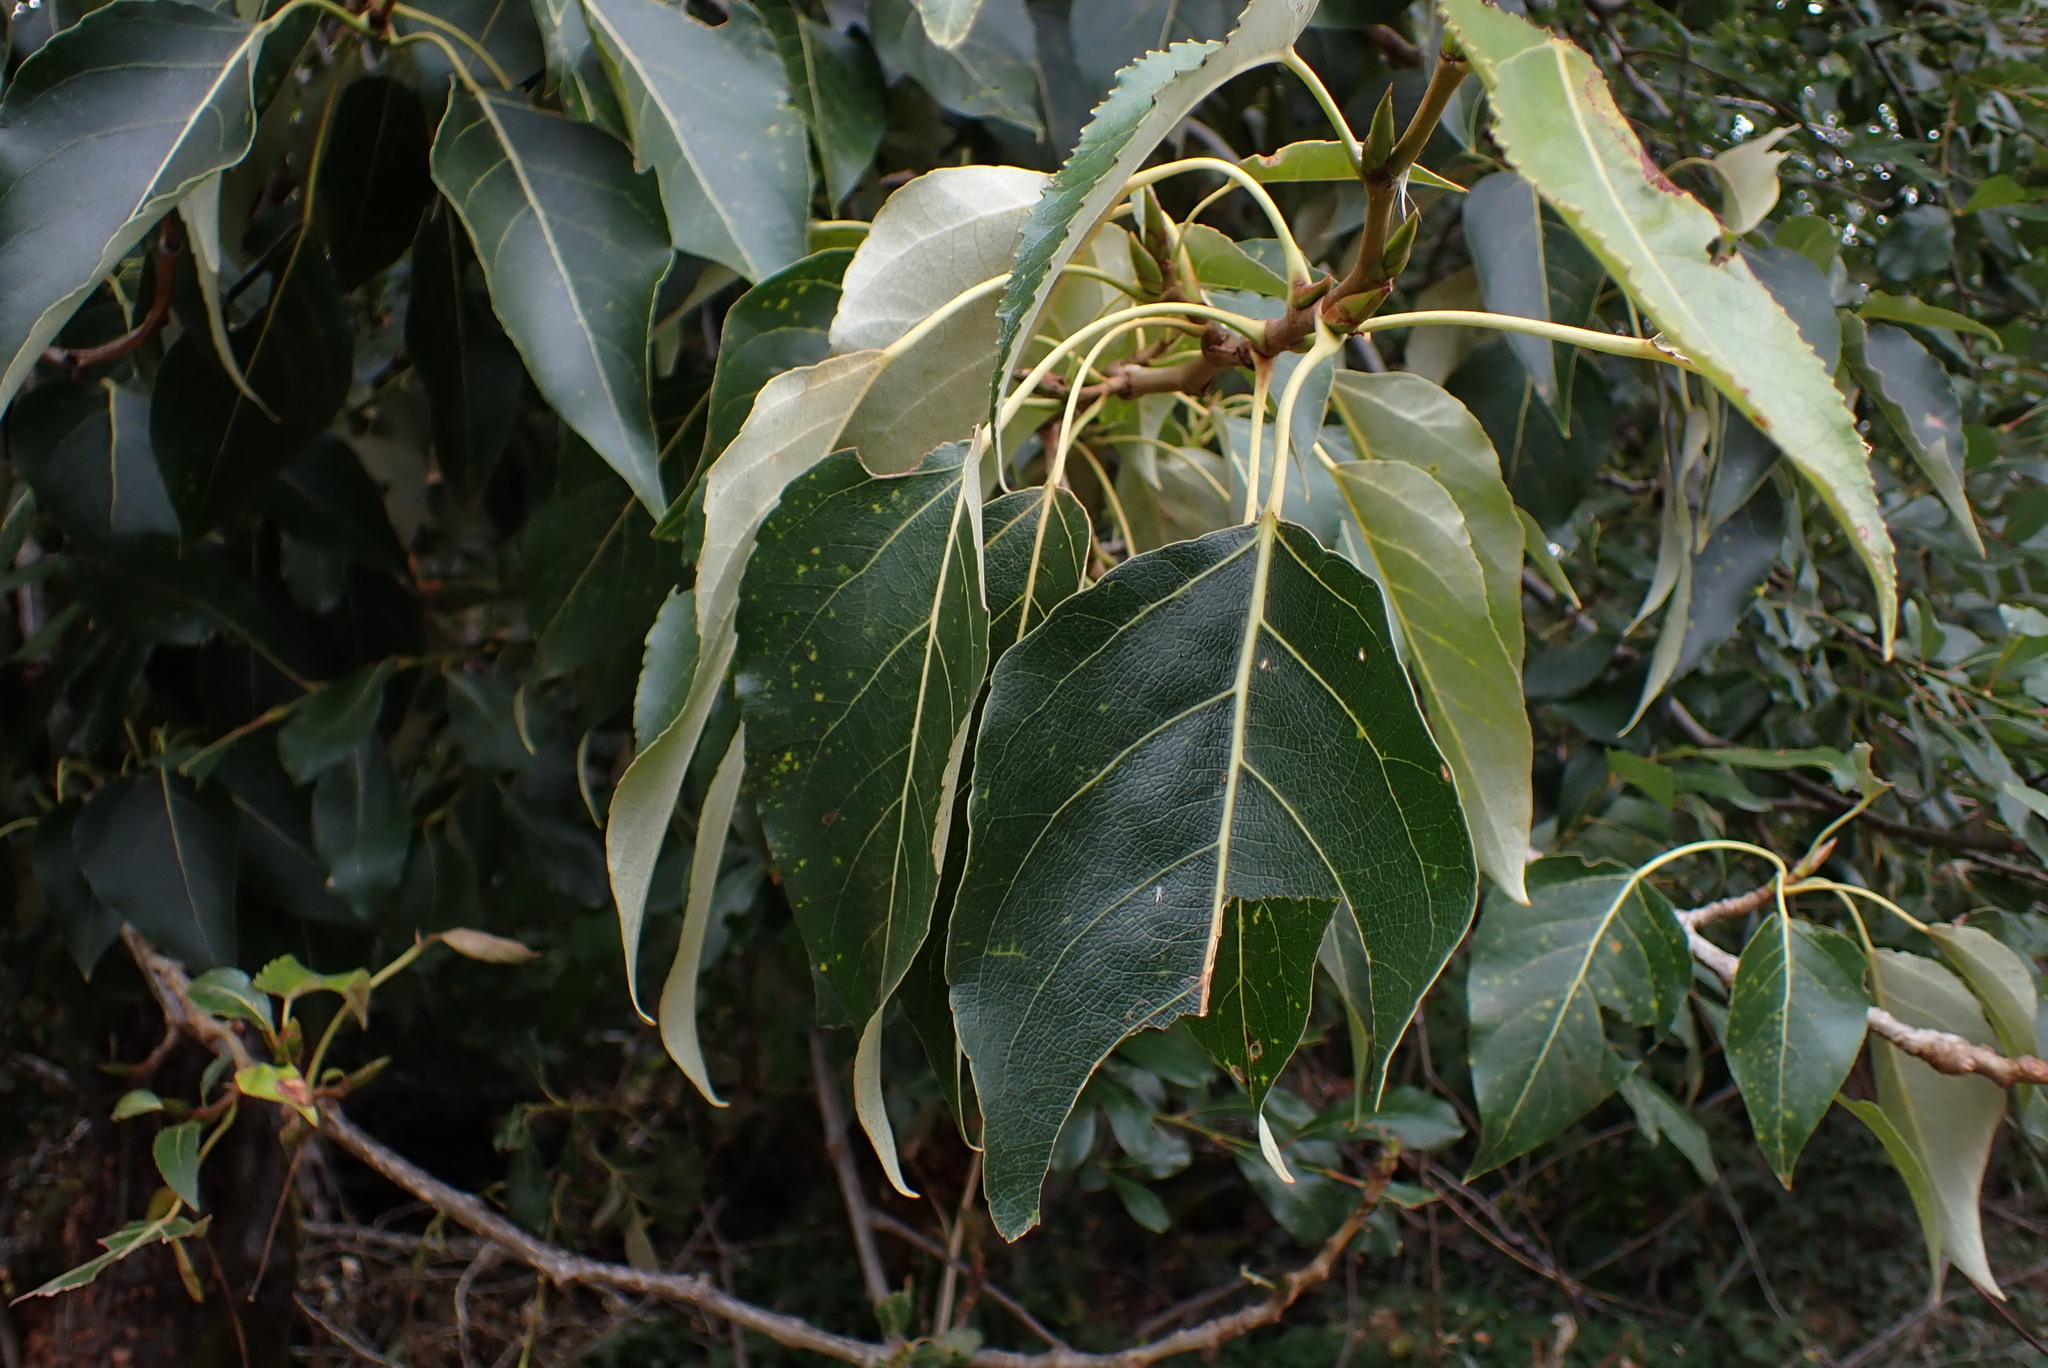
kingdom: Plantae
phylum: Tracheophyta
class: Magnoliopsida
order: Malpighiales
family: Salicaceae
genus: Populus
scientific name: Populus trichocarpa
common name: Black cottonwood
